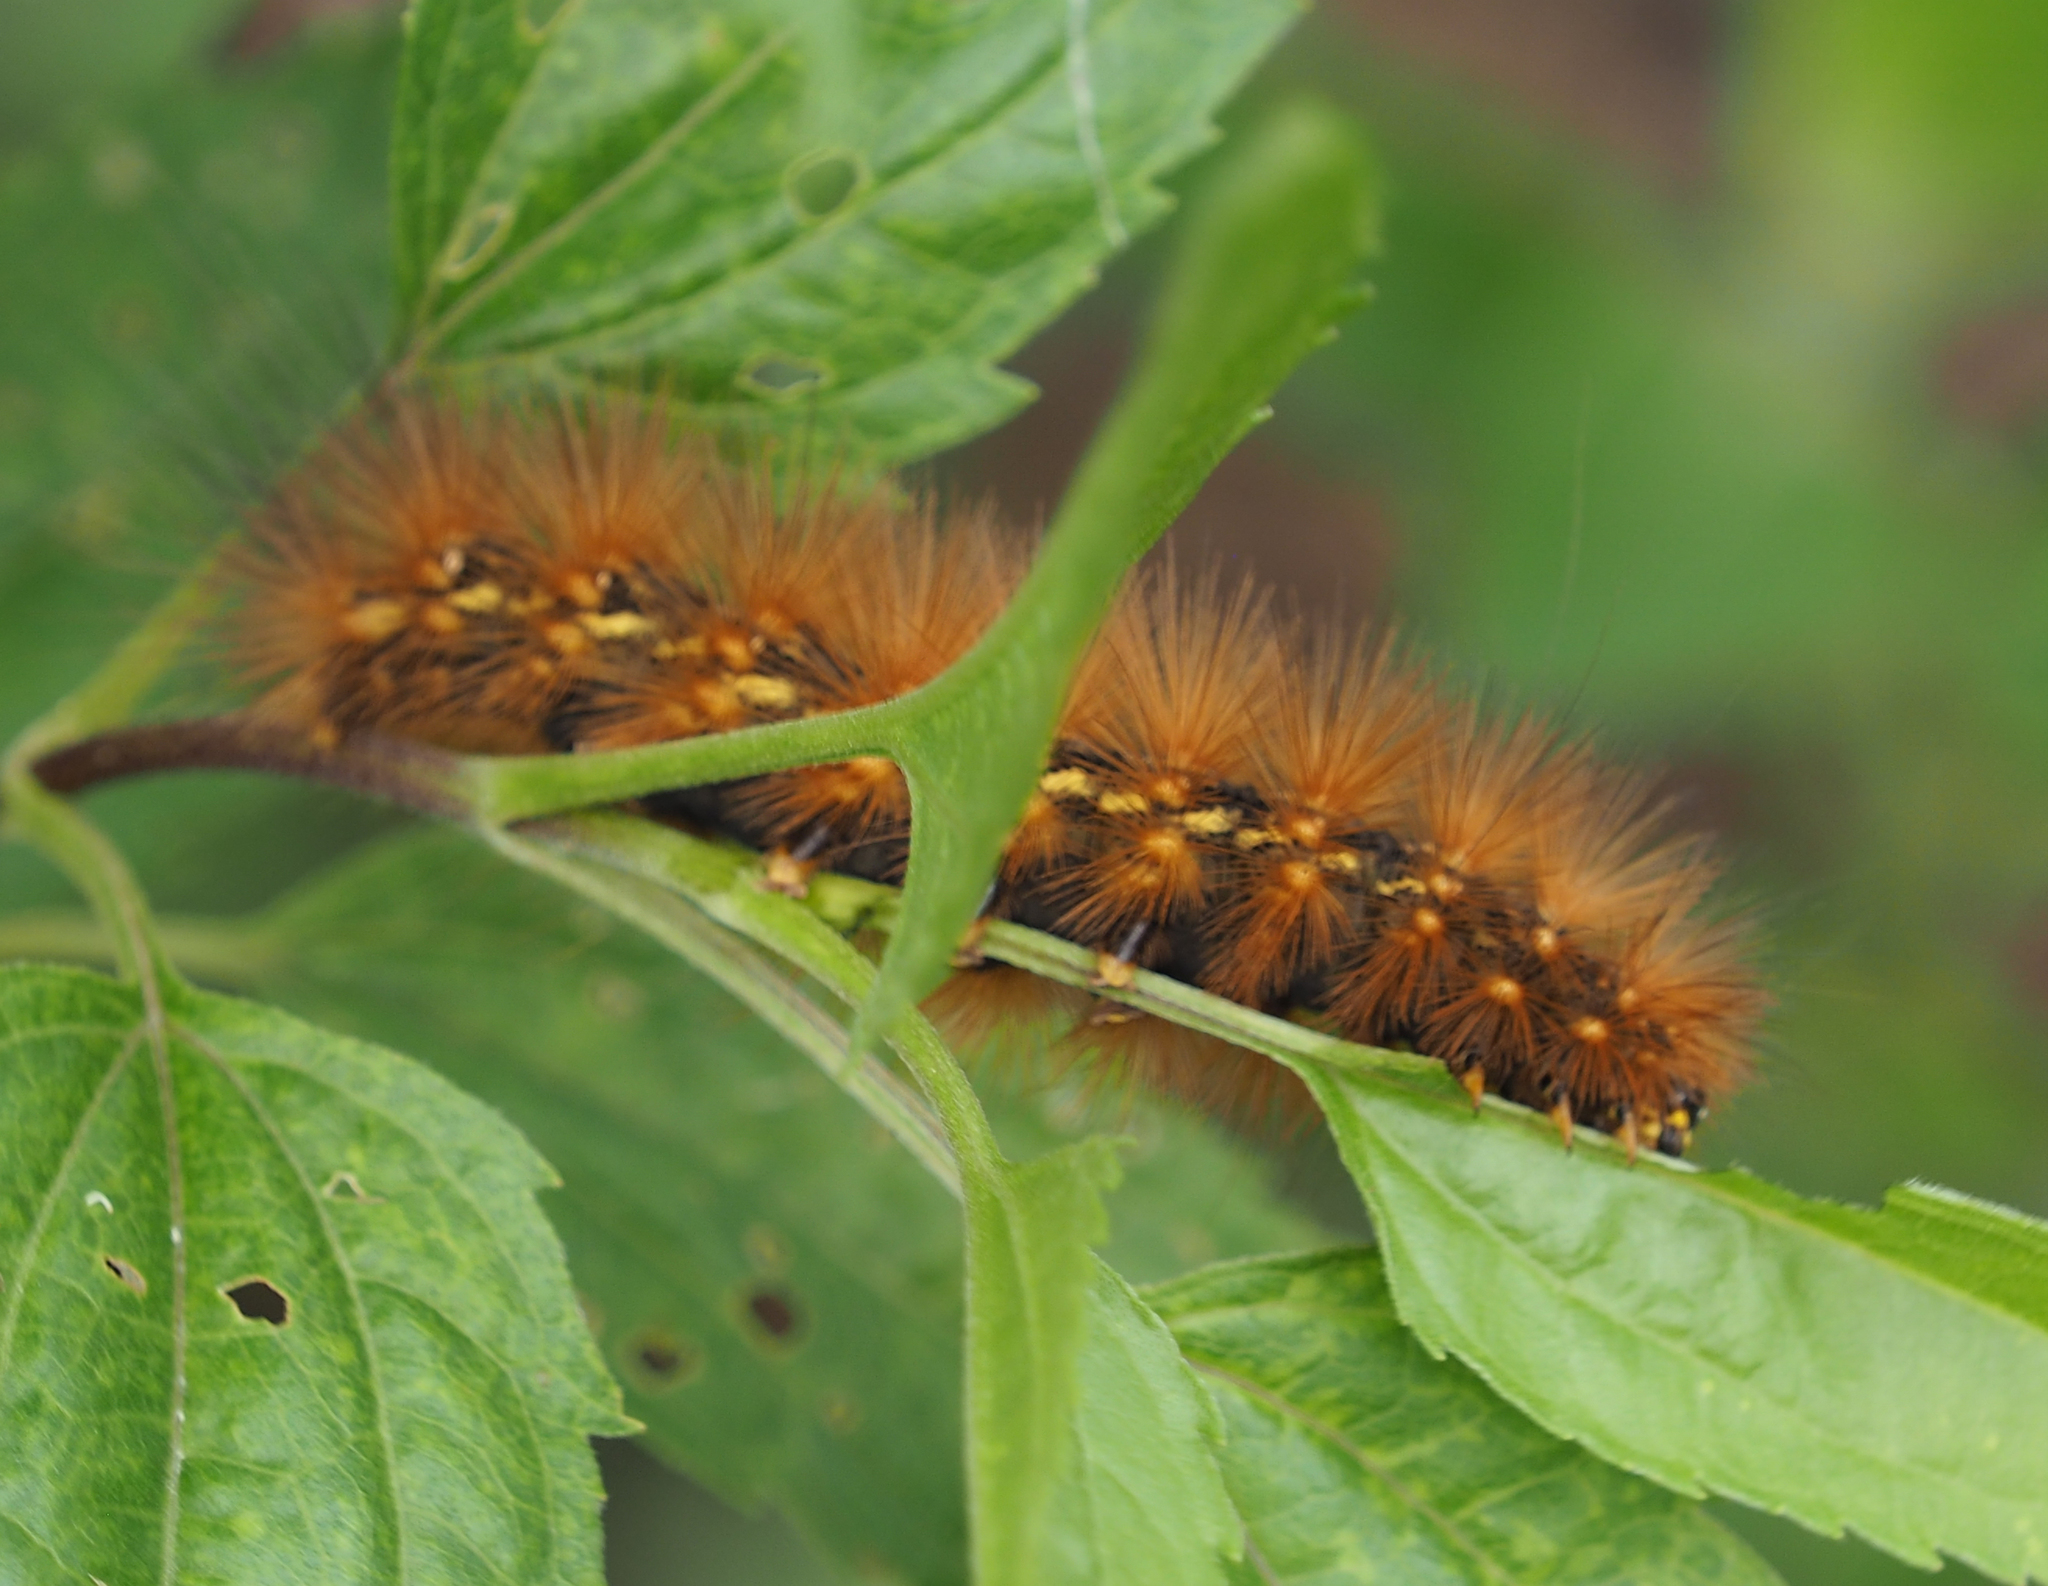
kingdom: Animalia
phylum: Arthropoda
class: Insecta
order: Lepidoptera
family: Erebidae
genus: Estigmene
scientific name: Estigmene acrea
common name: Salt marsh moth
